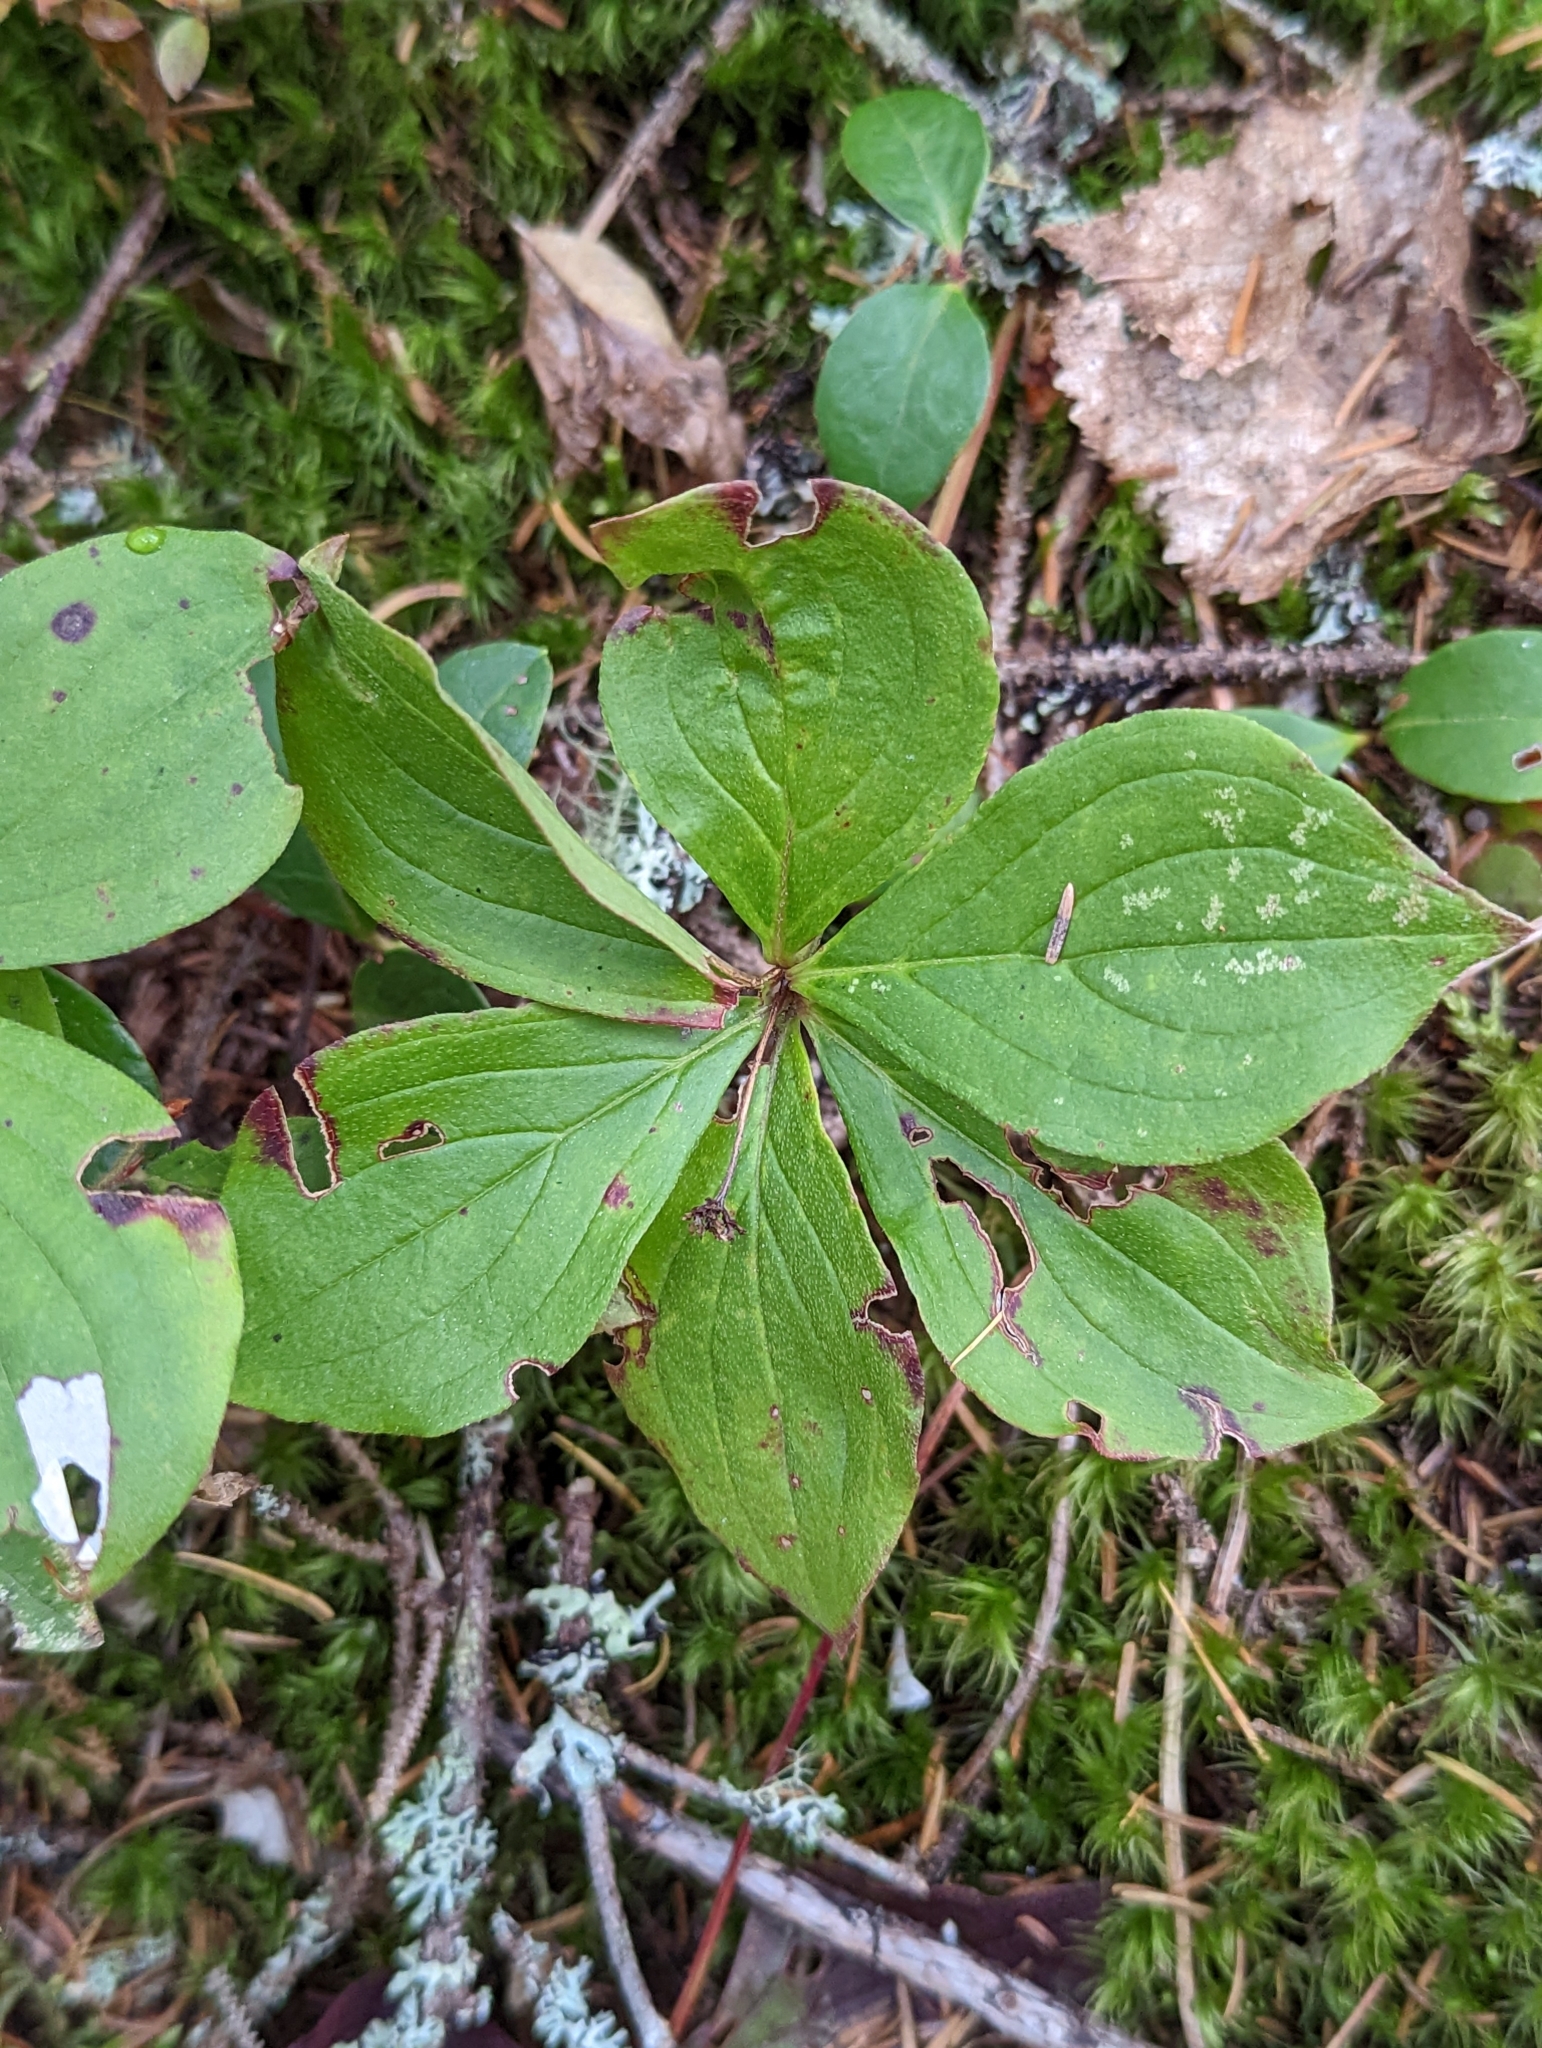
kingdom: Plantae
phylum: Tracheophyta
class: Magnoliopsida
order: Cornales
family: Cornaceae
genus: Cornus
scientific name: Cornus canadensis
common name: Creeping dogwood
